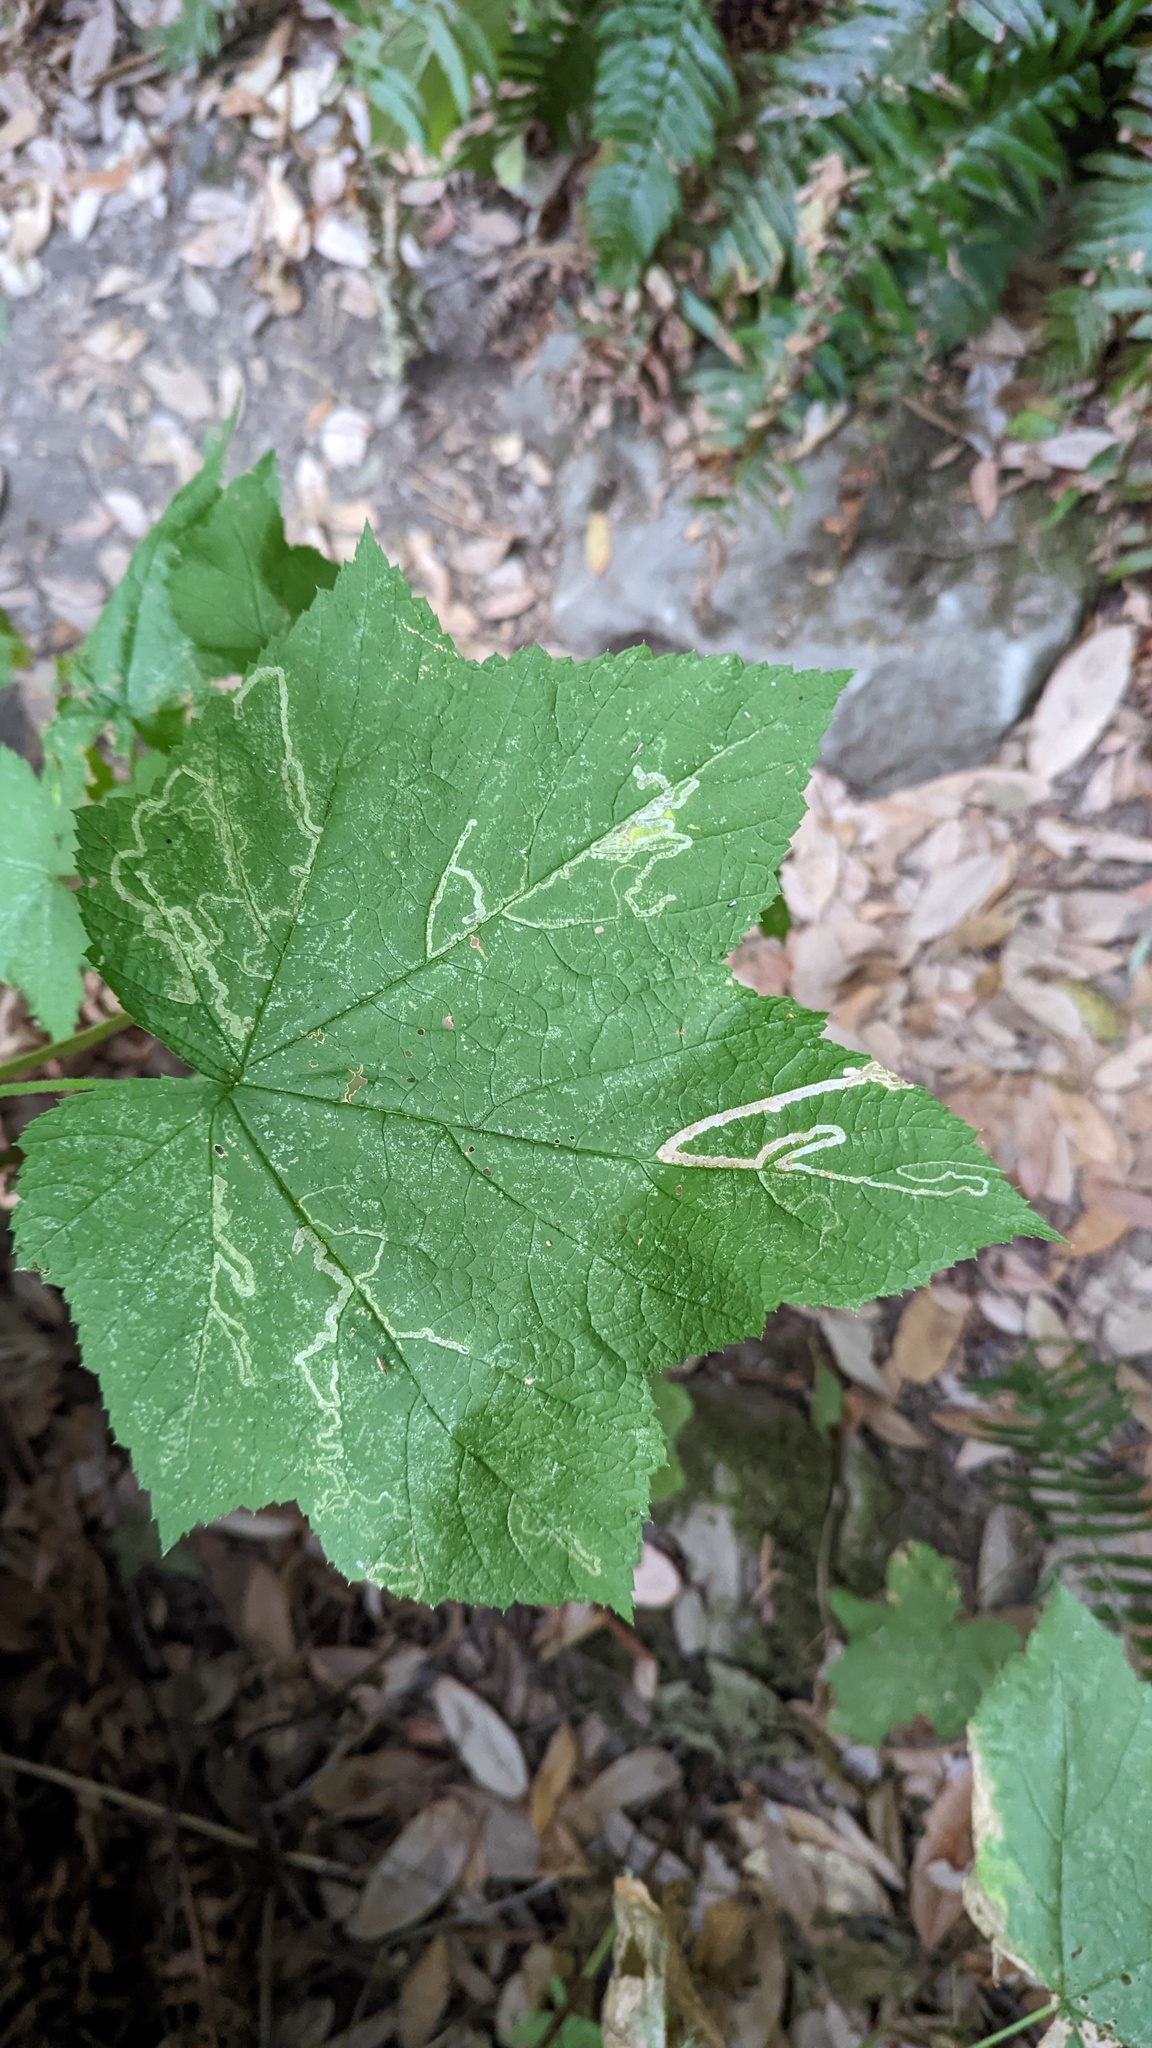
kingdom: Animalia
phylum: Arthropoda
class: Insecta
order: Diptera
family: Agromyzidae
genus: Agromyza
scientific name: Agromyza vockerothi
